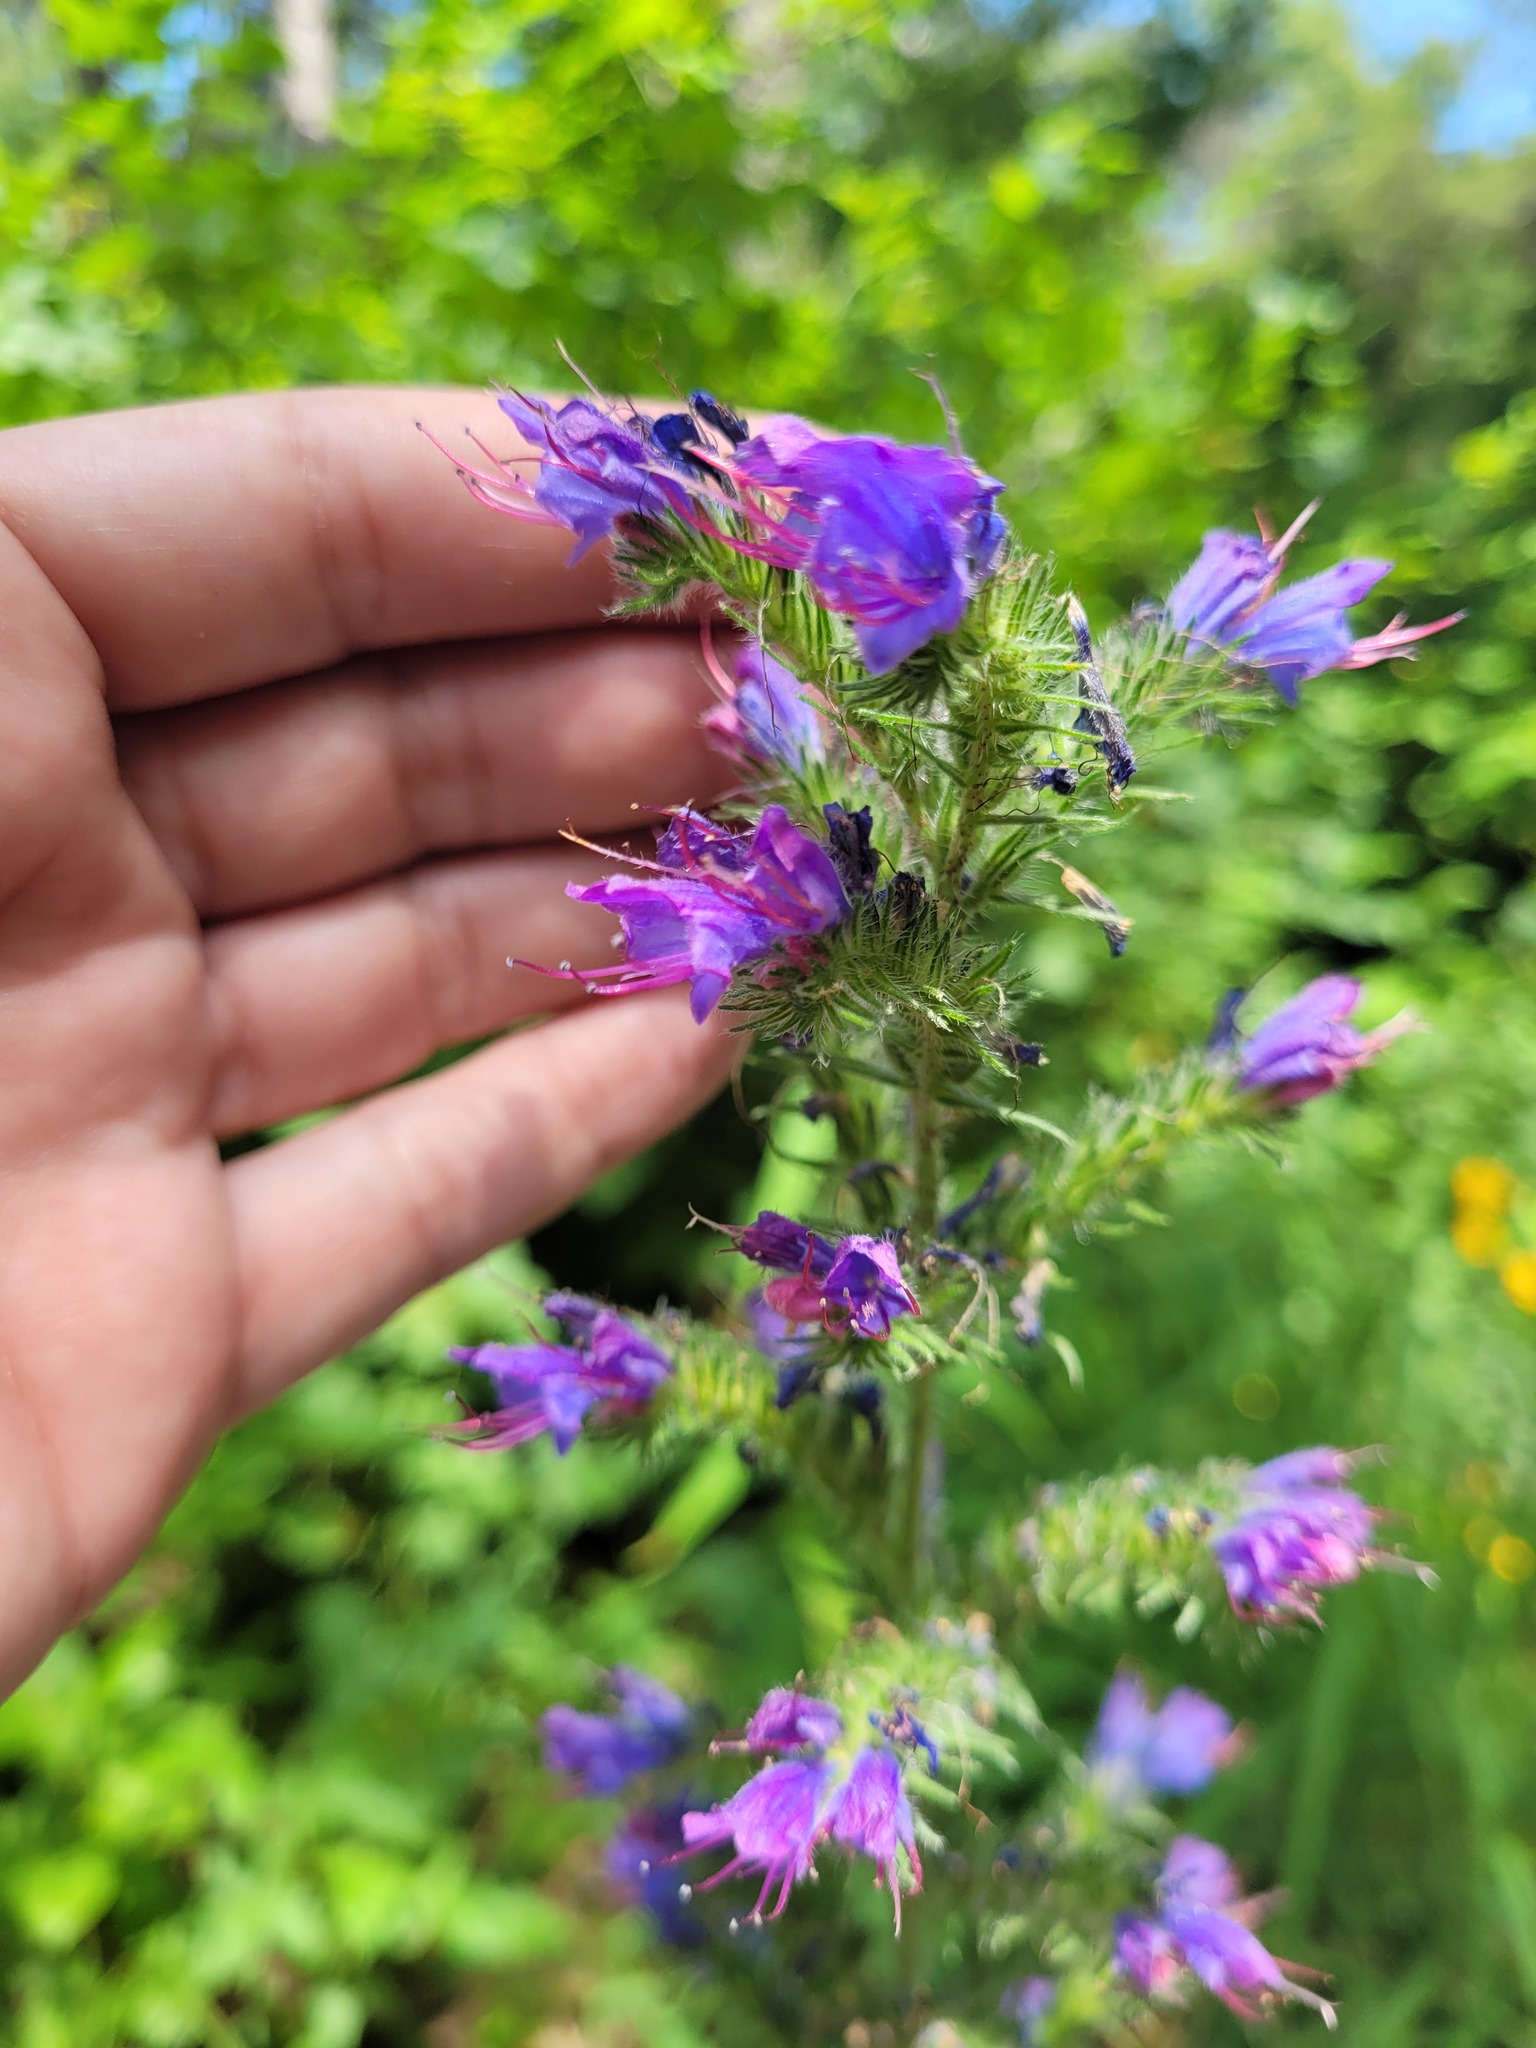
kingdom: Plantae
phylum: Tracheophyta
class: Magnoliopsida
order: Boraginales
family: Boraginaceae
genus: Echium
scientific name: Echium vulgare
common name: Common viper's bugloss
